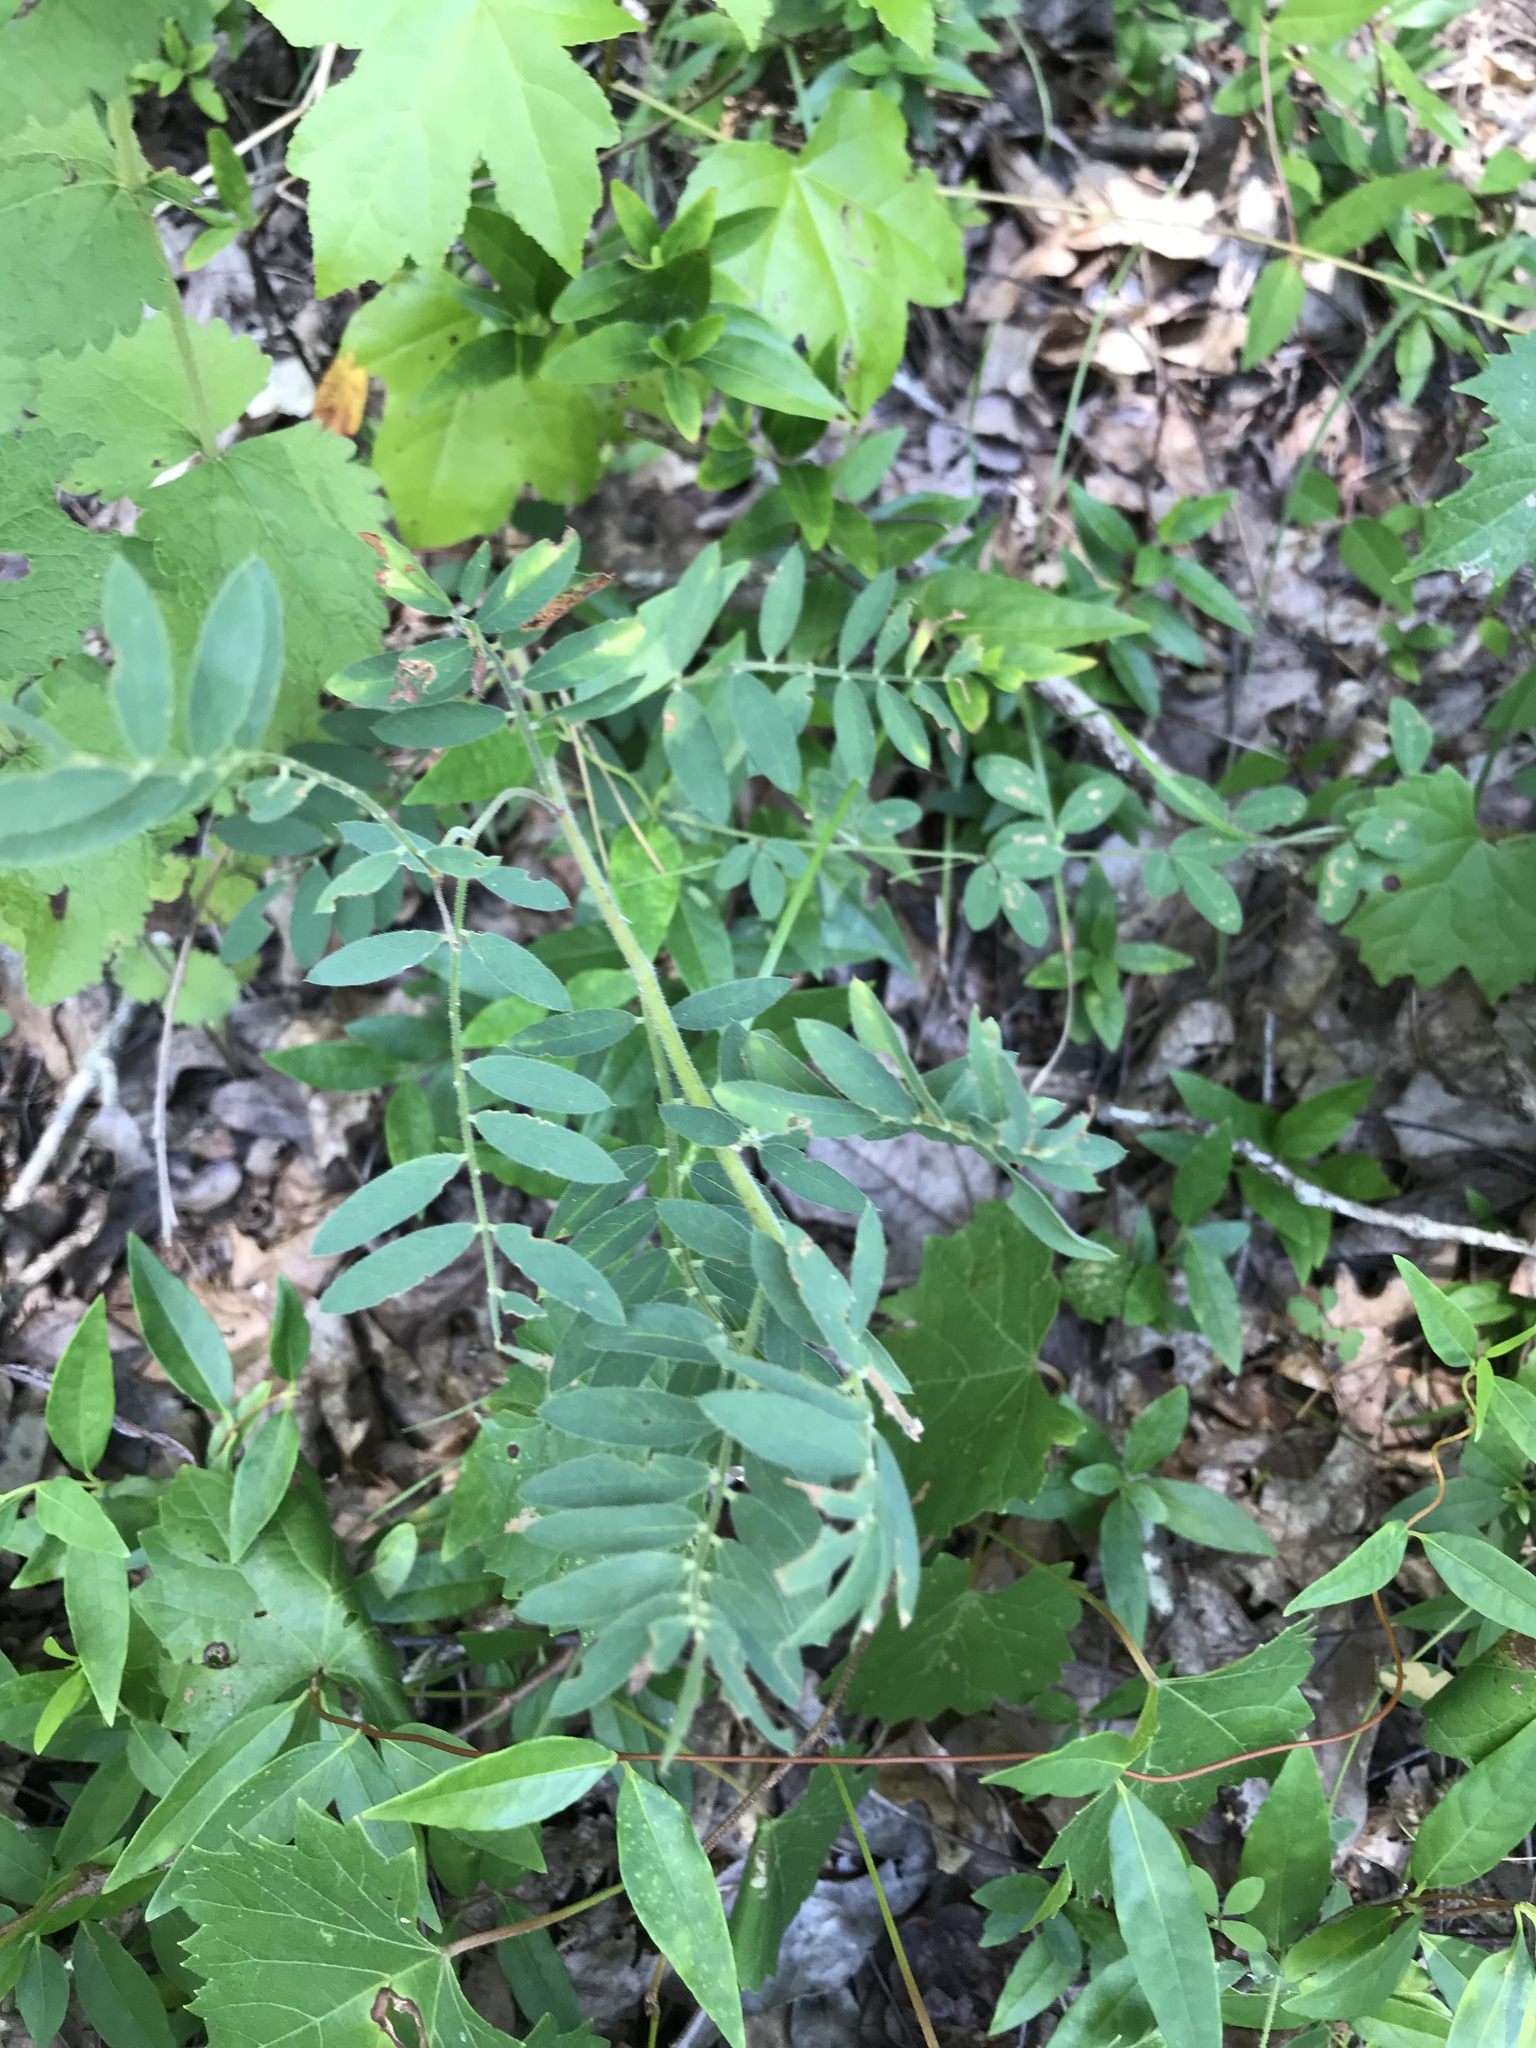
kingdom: Plantae
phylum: Tracheophyta
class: Magnoliopsida
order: Fabales
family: Fabaceae
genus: Tephrosia
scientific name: Tephrosia virginiana
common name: Rabbit-pea
